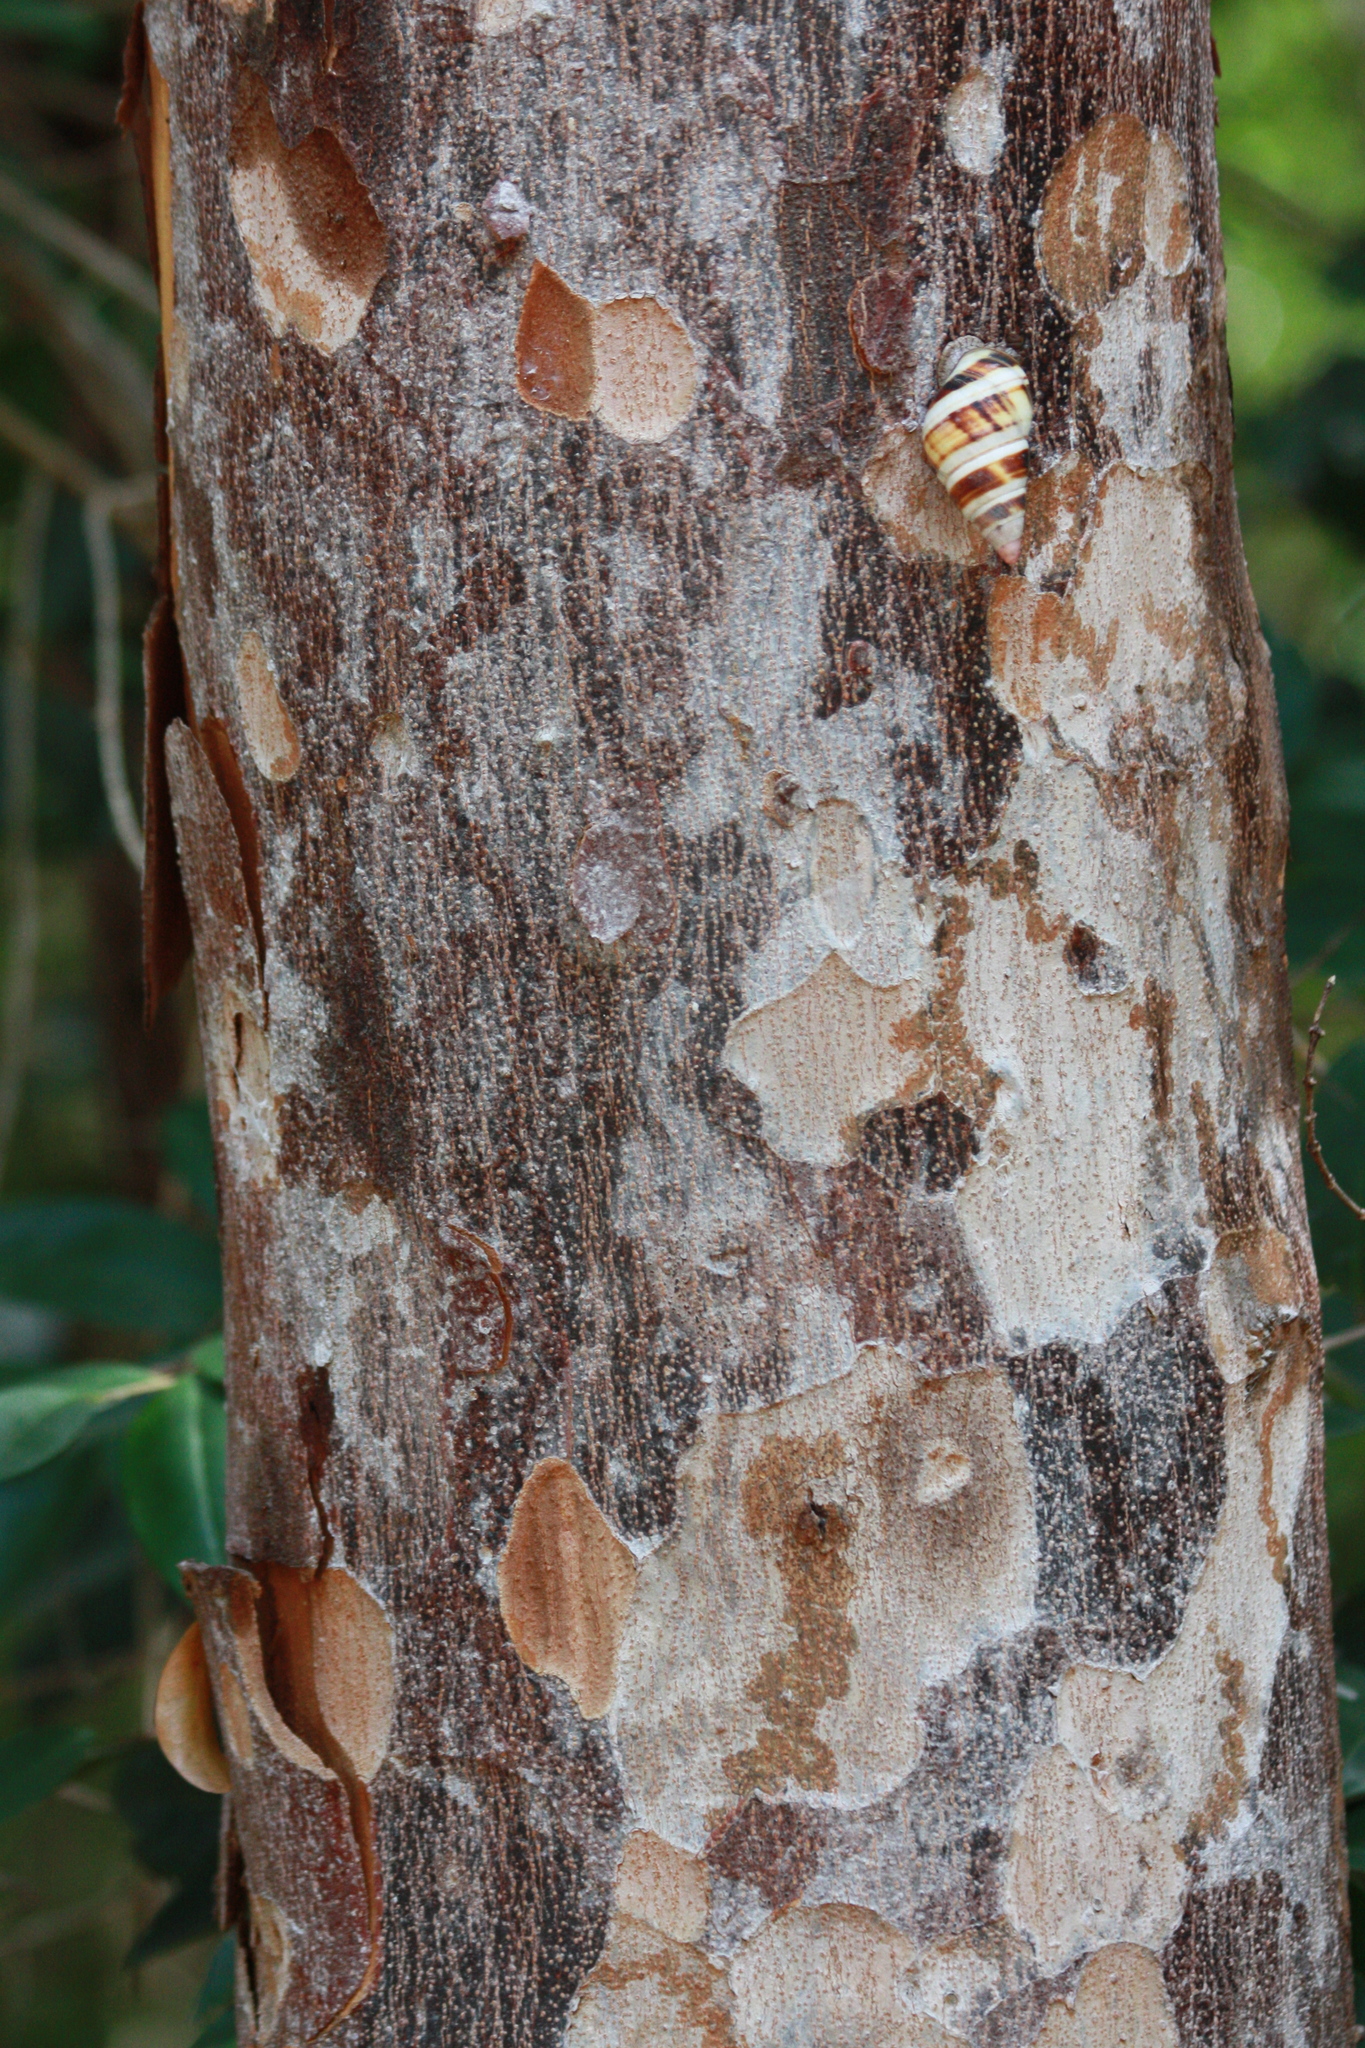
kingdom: Plantae
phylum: Tracheophyta
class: Magnoliopsida
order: Sapindales
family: Anacardiaceae
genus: Metopium
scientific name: Metopium toxiferum
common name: Florida poisontree
